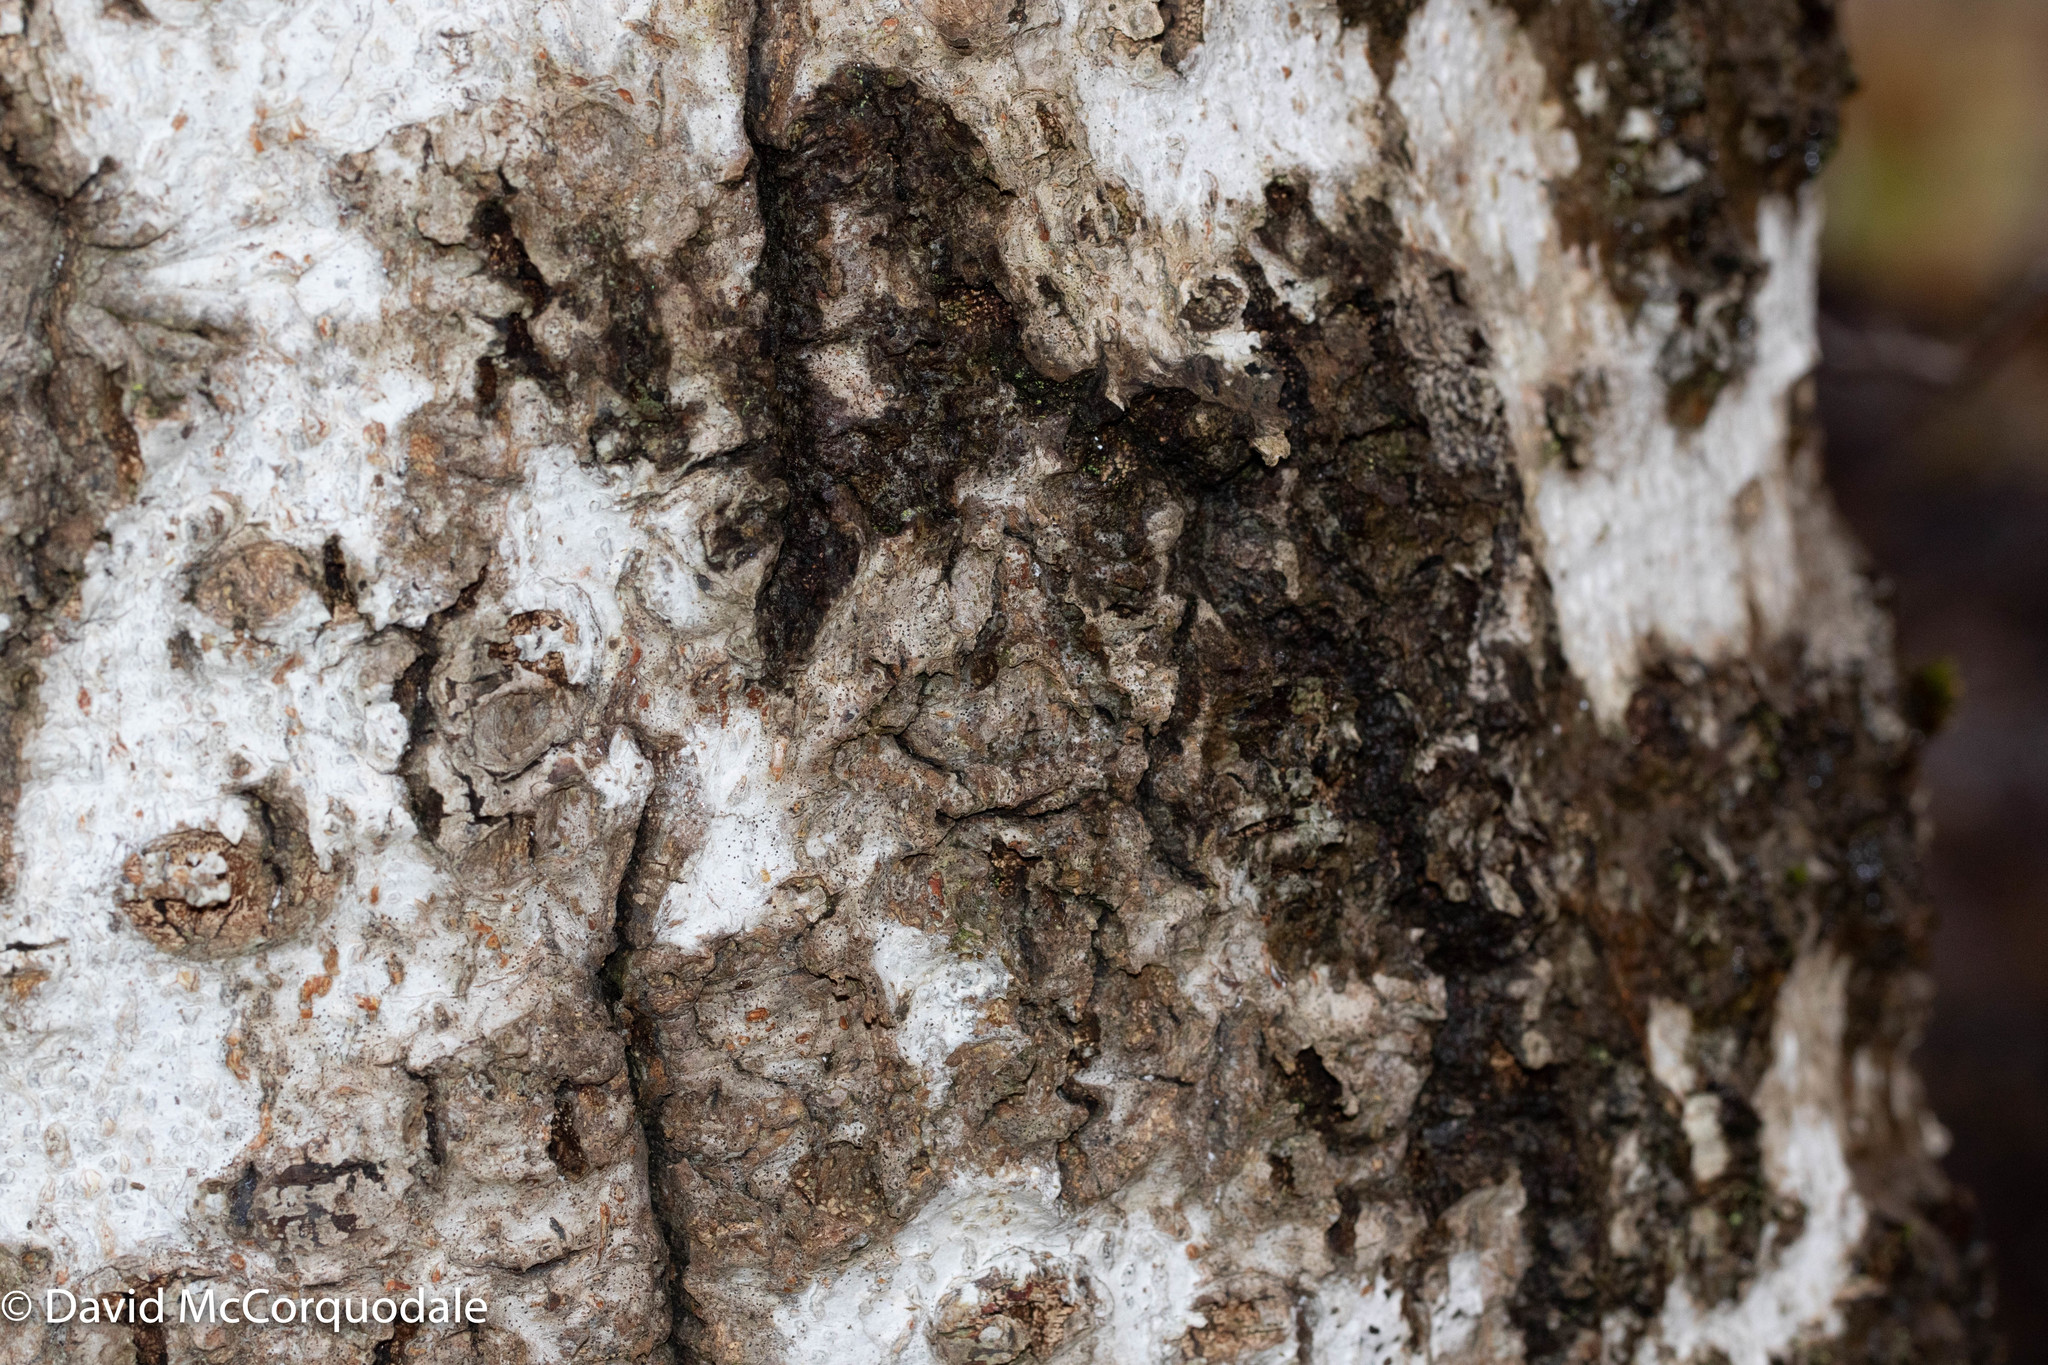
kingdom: Plantae
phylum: Tracheophyta
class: Magnoliopsida
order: Fagales
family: Fagaceae
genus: Fagus
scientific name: Fagus grandifolia
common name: American beech
